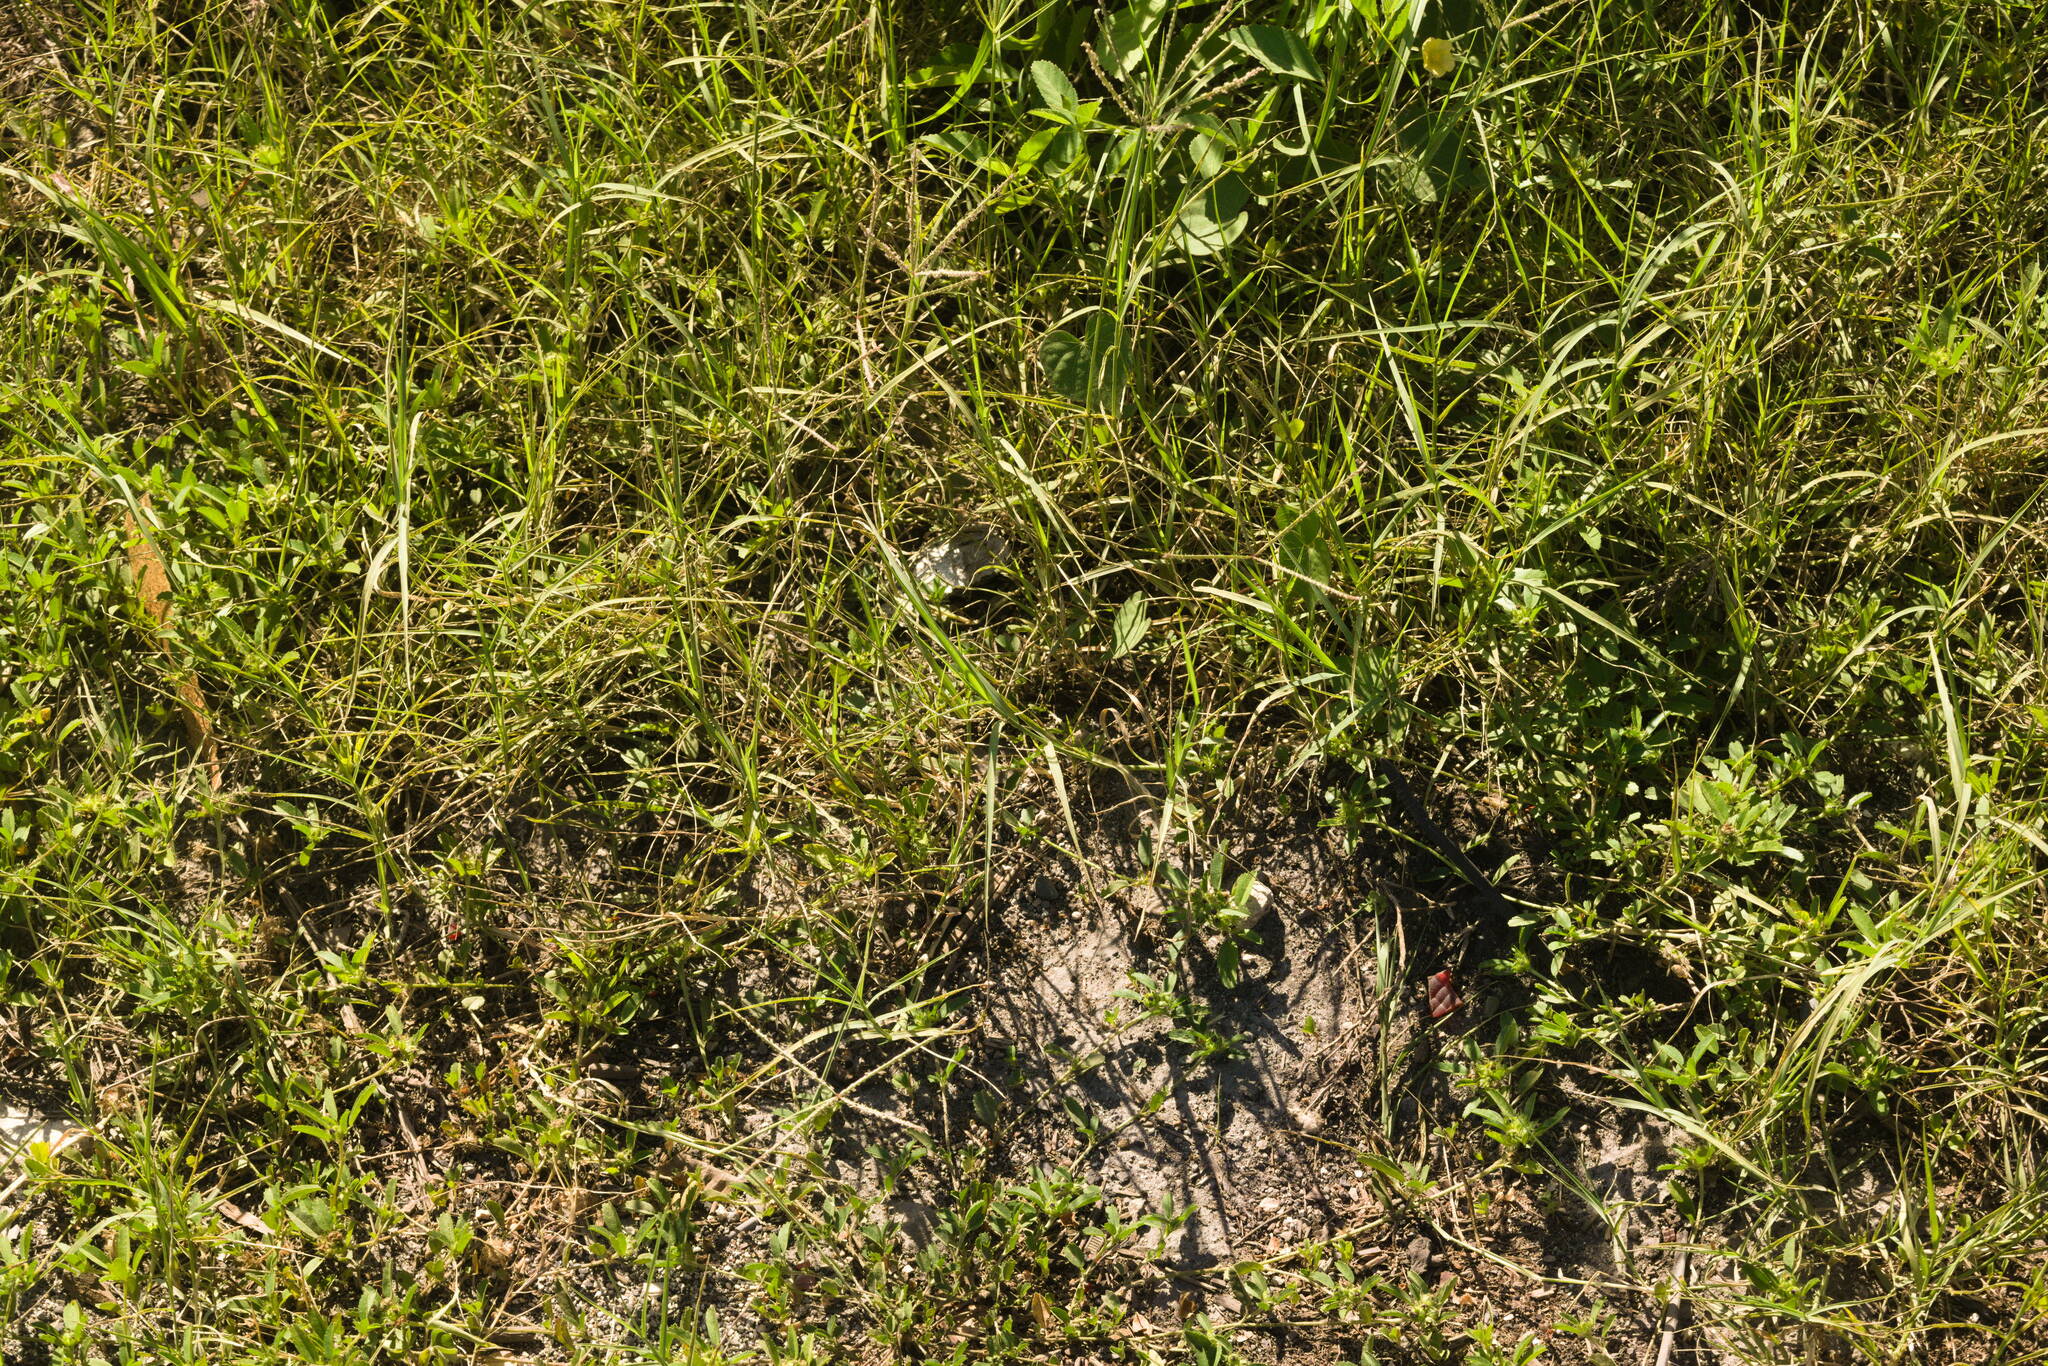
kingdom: Plantae
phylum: Tracheophyta
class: Liliopsida
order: Poales
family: Poaceae
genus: Cynodon
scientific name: Cynodon dactylon
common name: Bermuda grass
